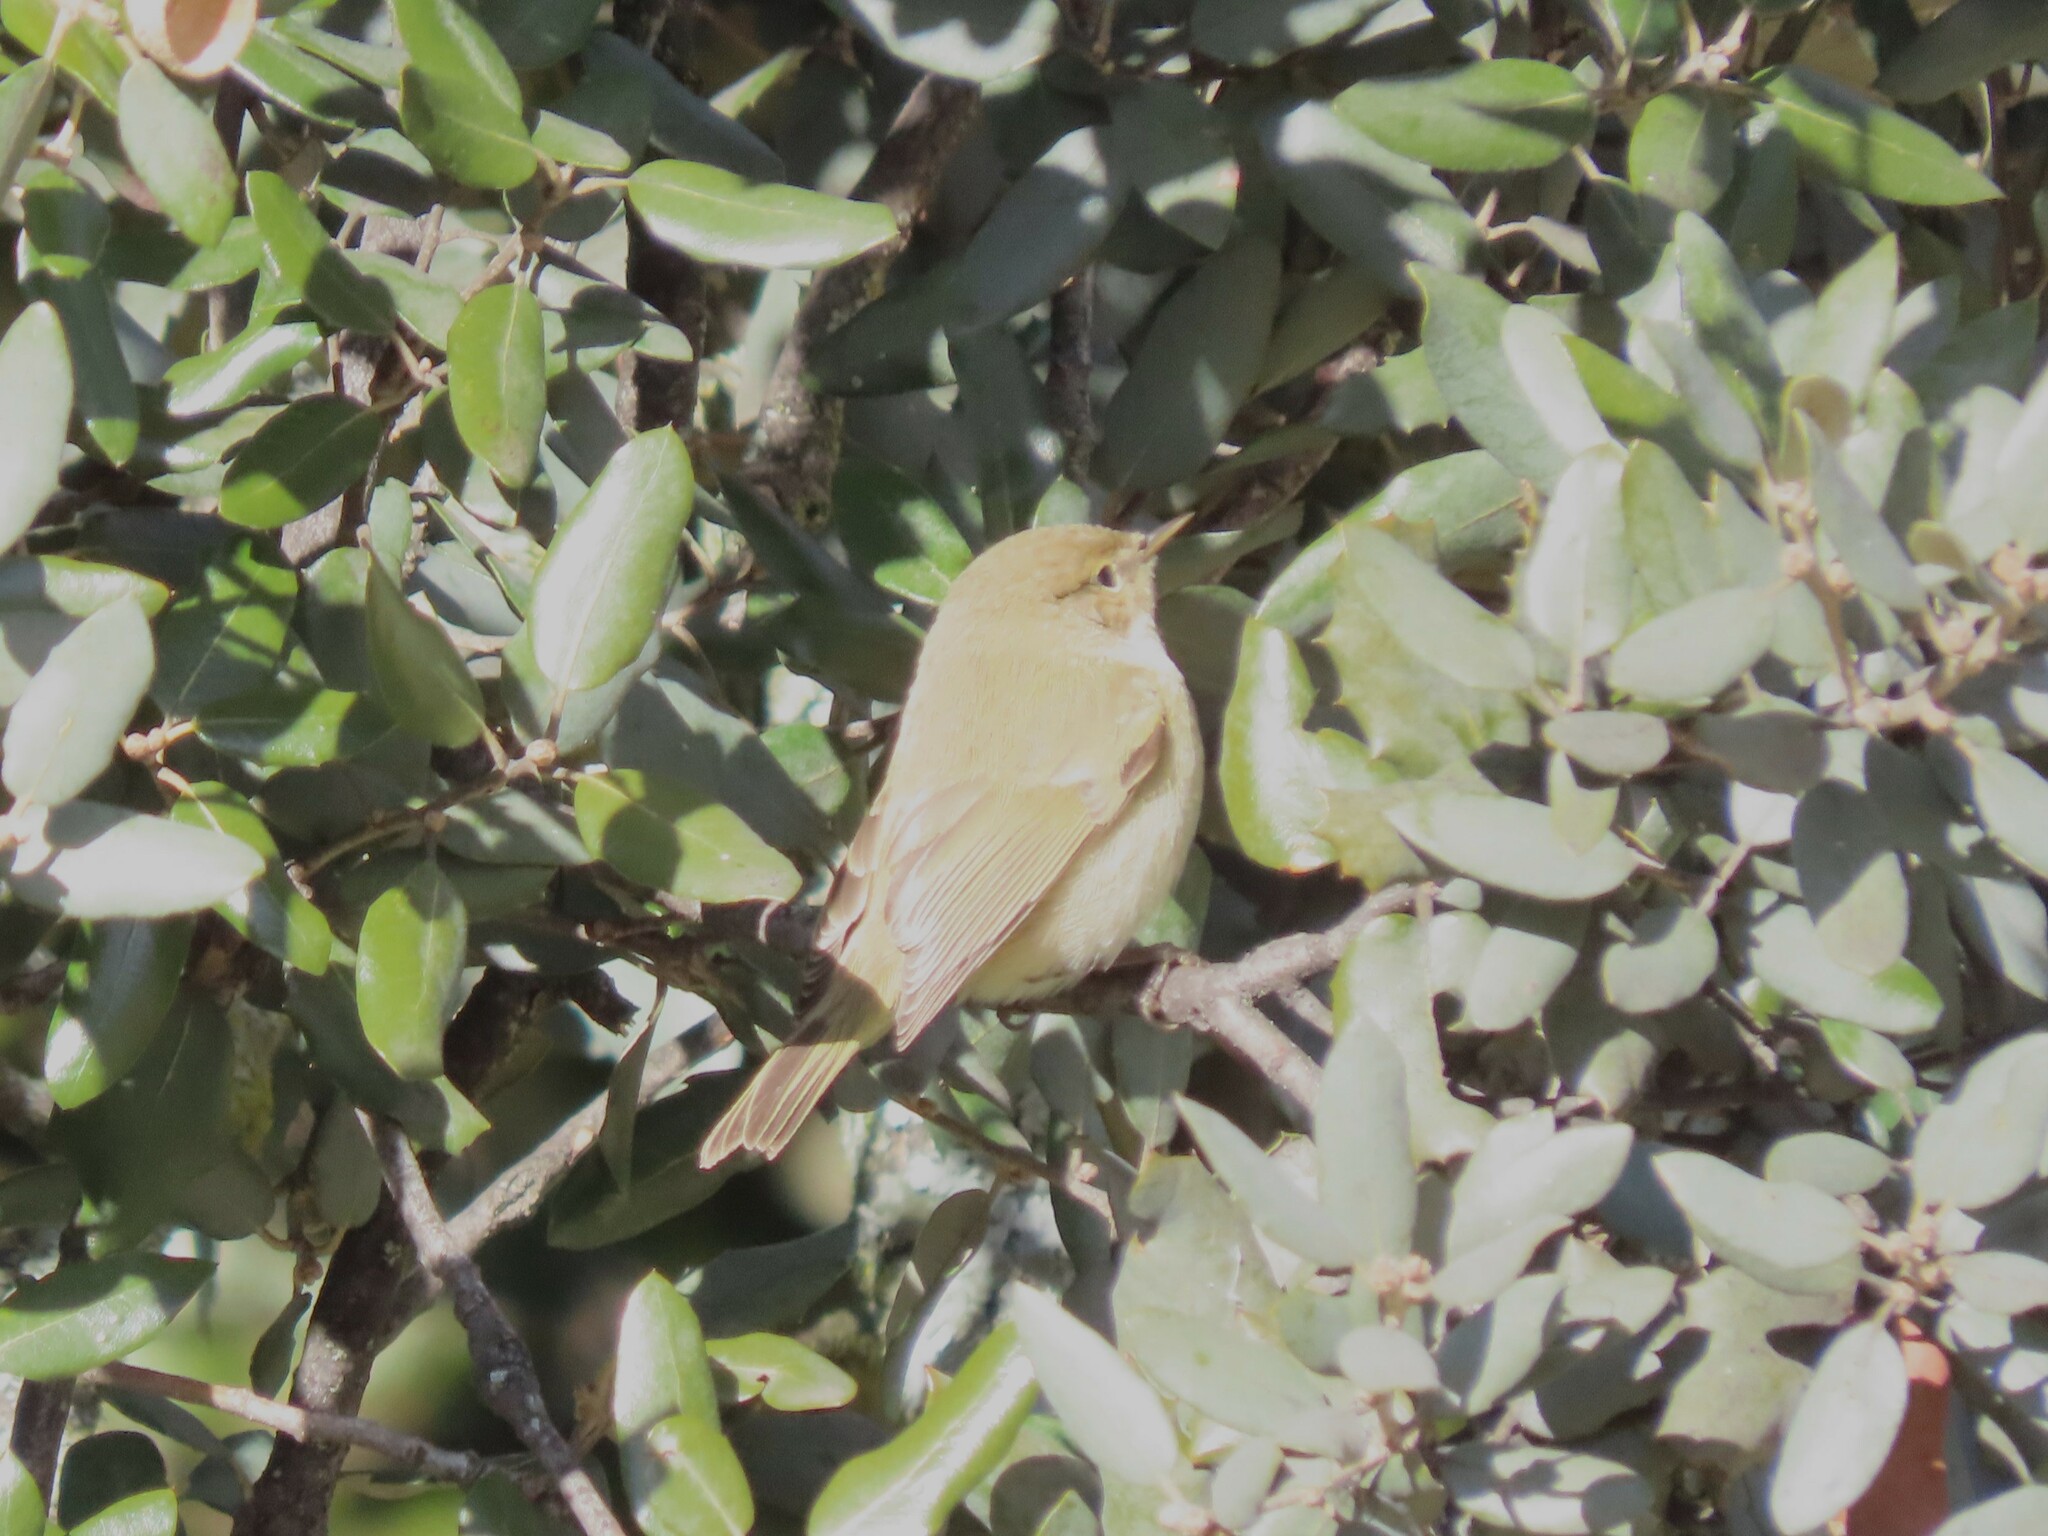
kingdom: Animalia
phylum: Chordata
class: Aves
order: Passeriformes
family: Phylloscopidae
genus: Phylloscopus
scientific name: Phylloscopus collybita
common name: Common chiffchaff
